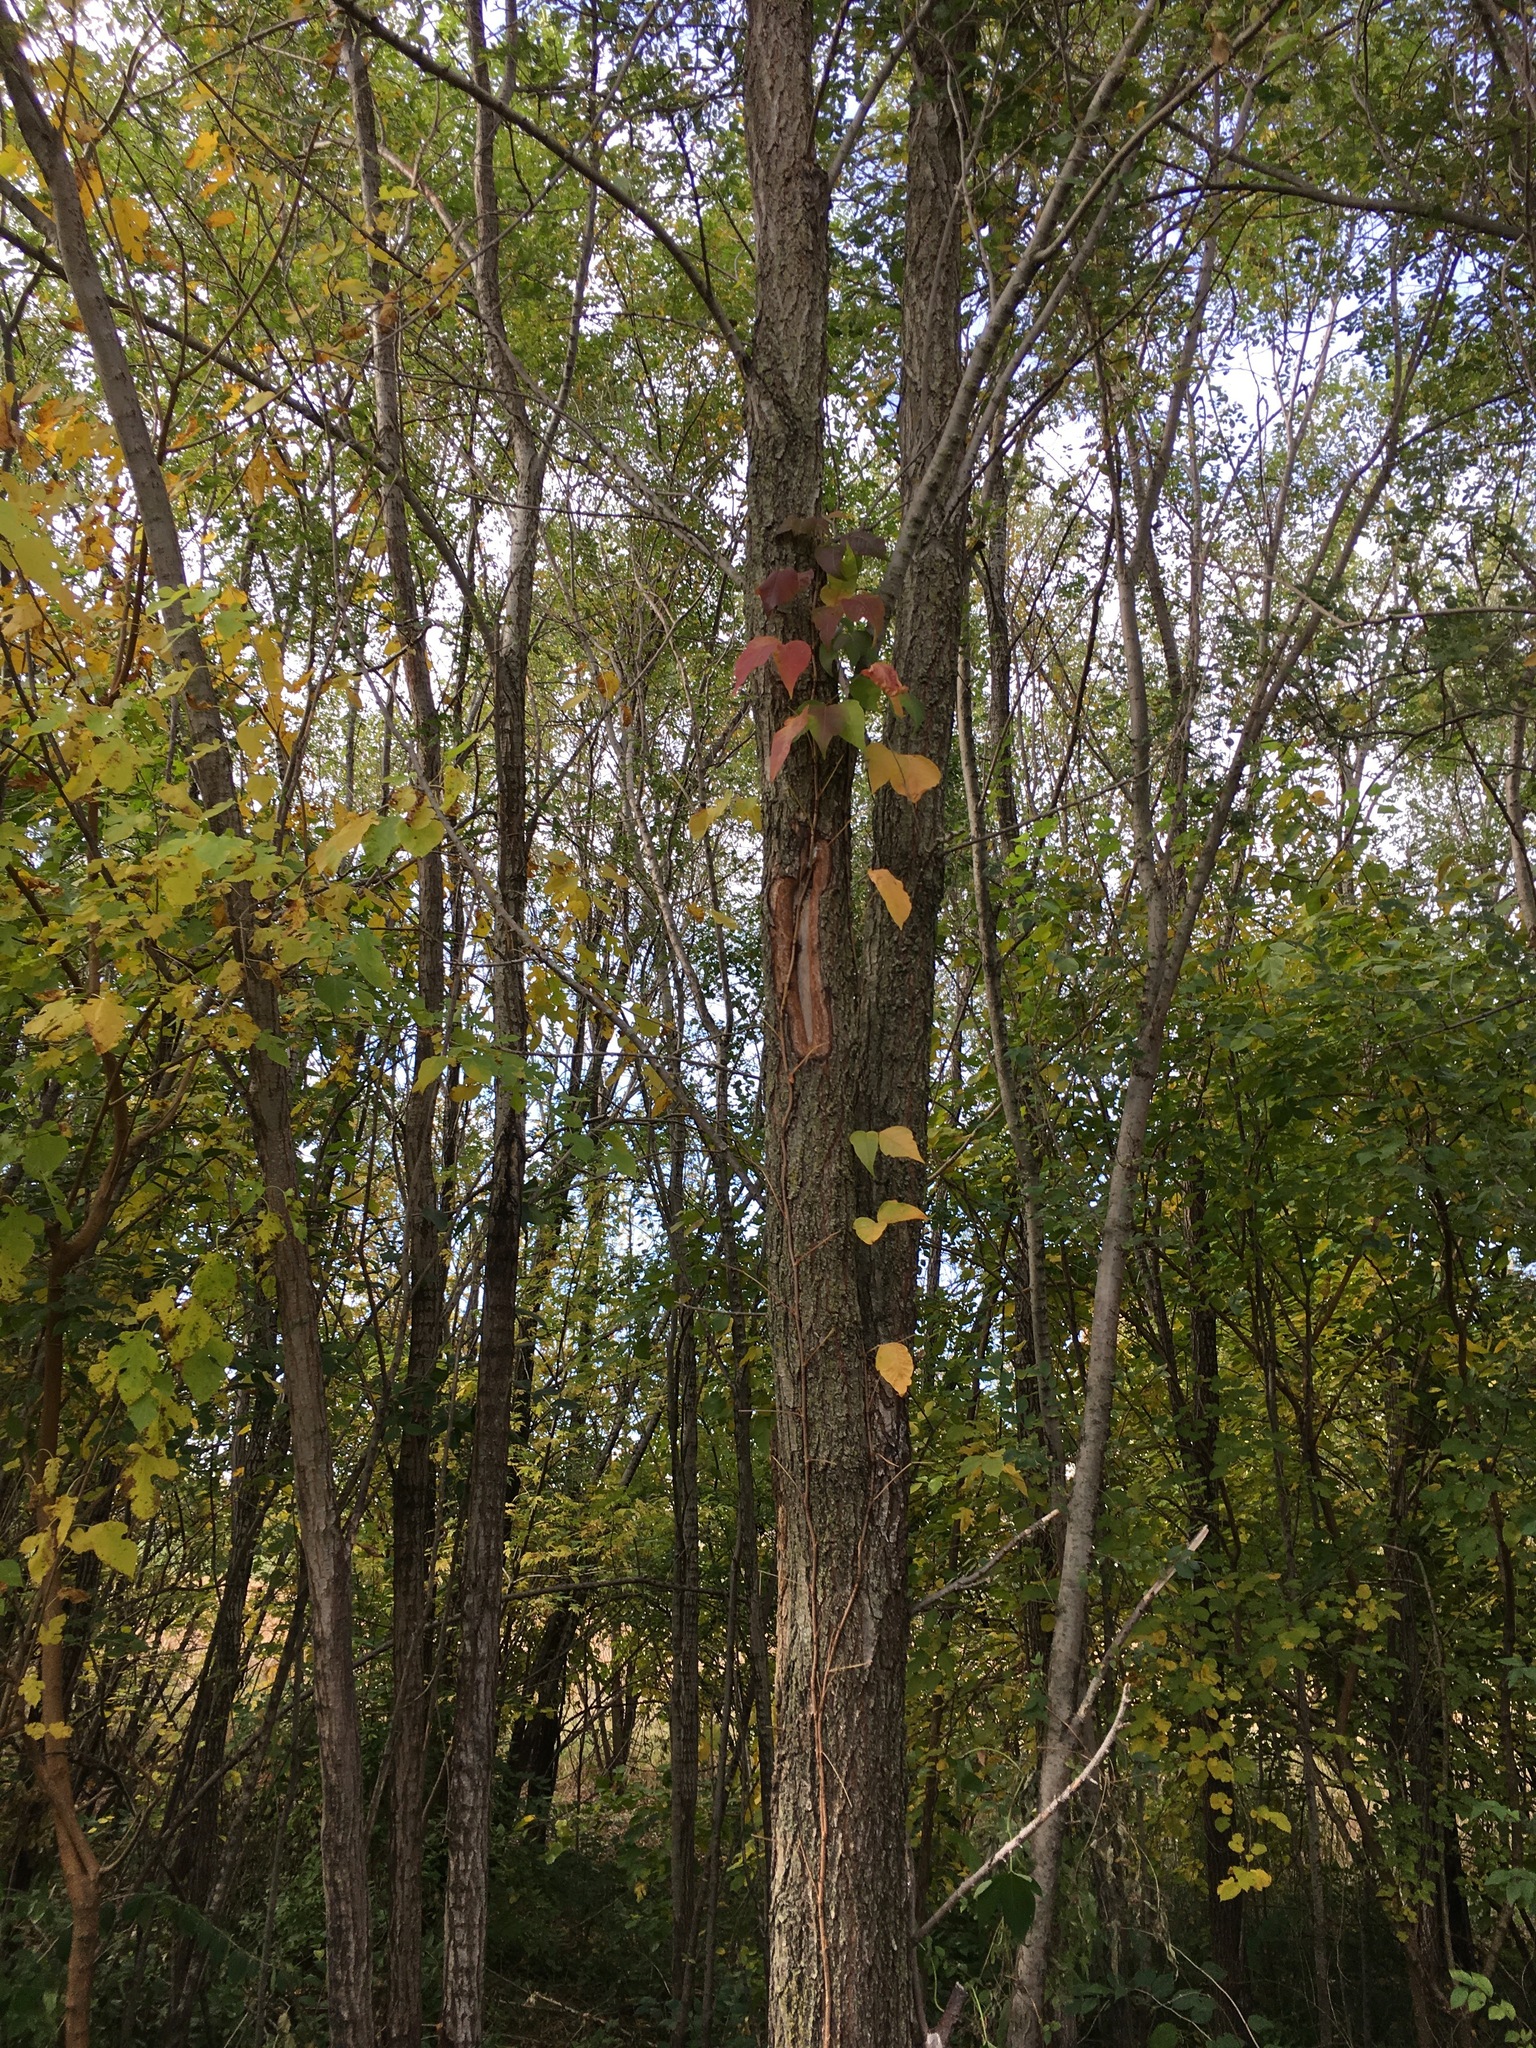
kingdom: Plantae
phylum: Tracheophyta
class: Magnoliopsida
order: Sapindales
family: Anacardiaceae
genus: Toxicodendron
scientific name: Toxicodendron radicans
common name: Poison ivy
